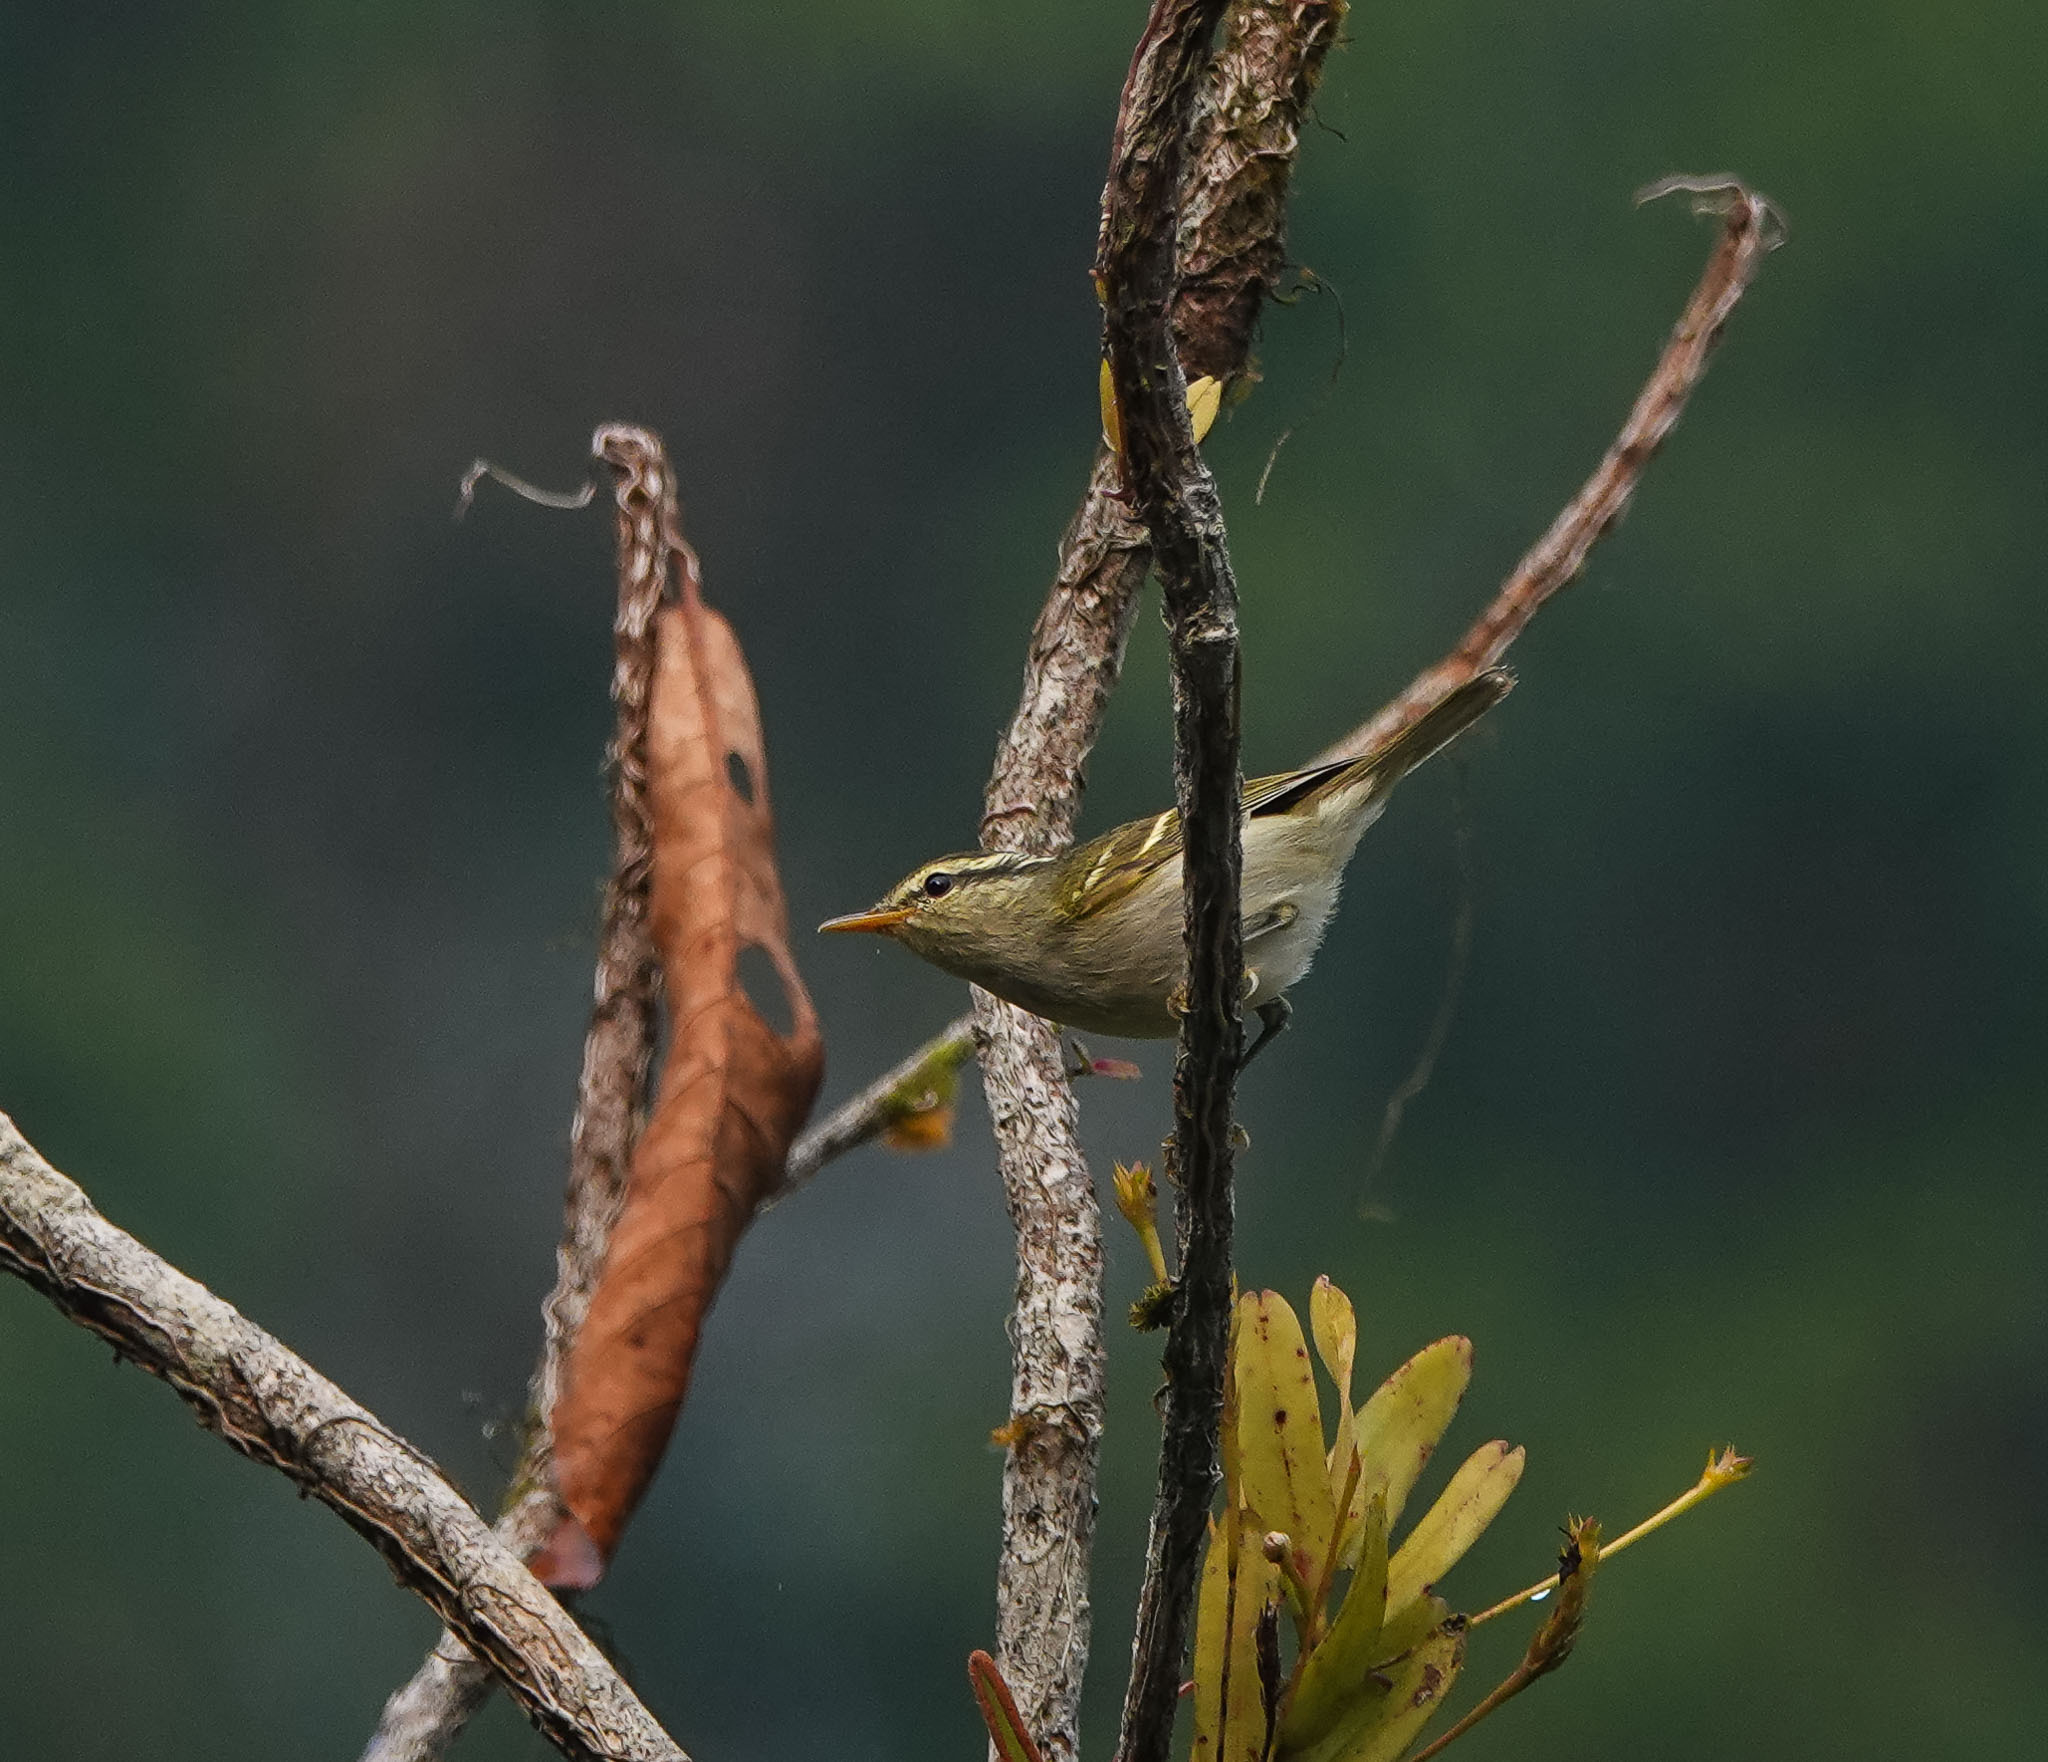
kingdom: Animalia
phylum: Chordata
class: Aves
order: Passeriformes
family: Phylloscopidae
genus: Phylloscopus
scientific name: Phylloscopus inornatus
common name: Yellow-browed warbler
